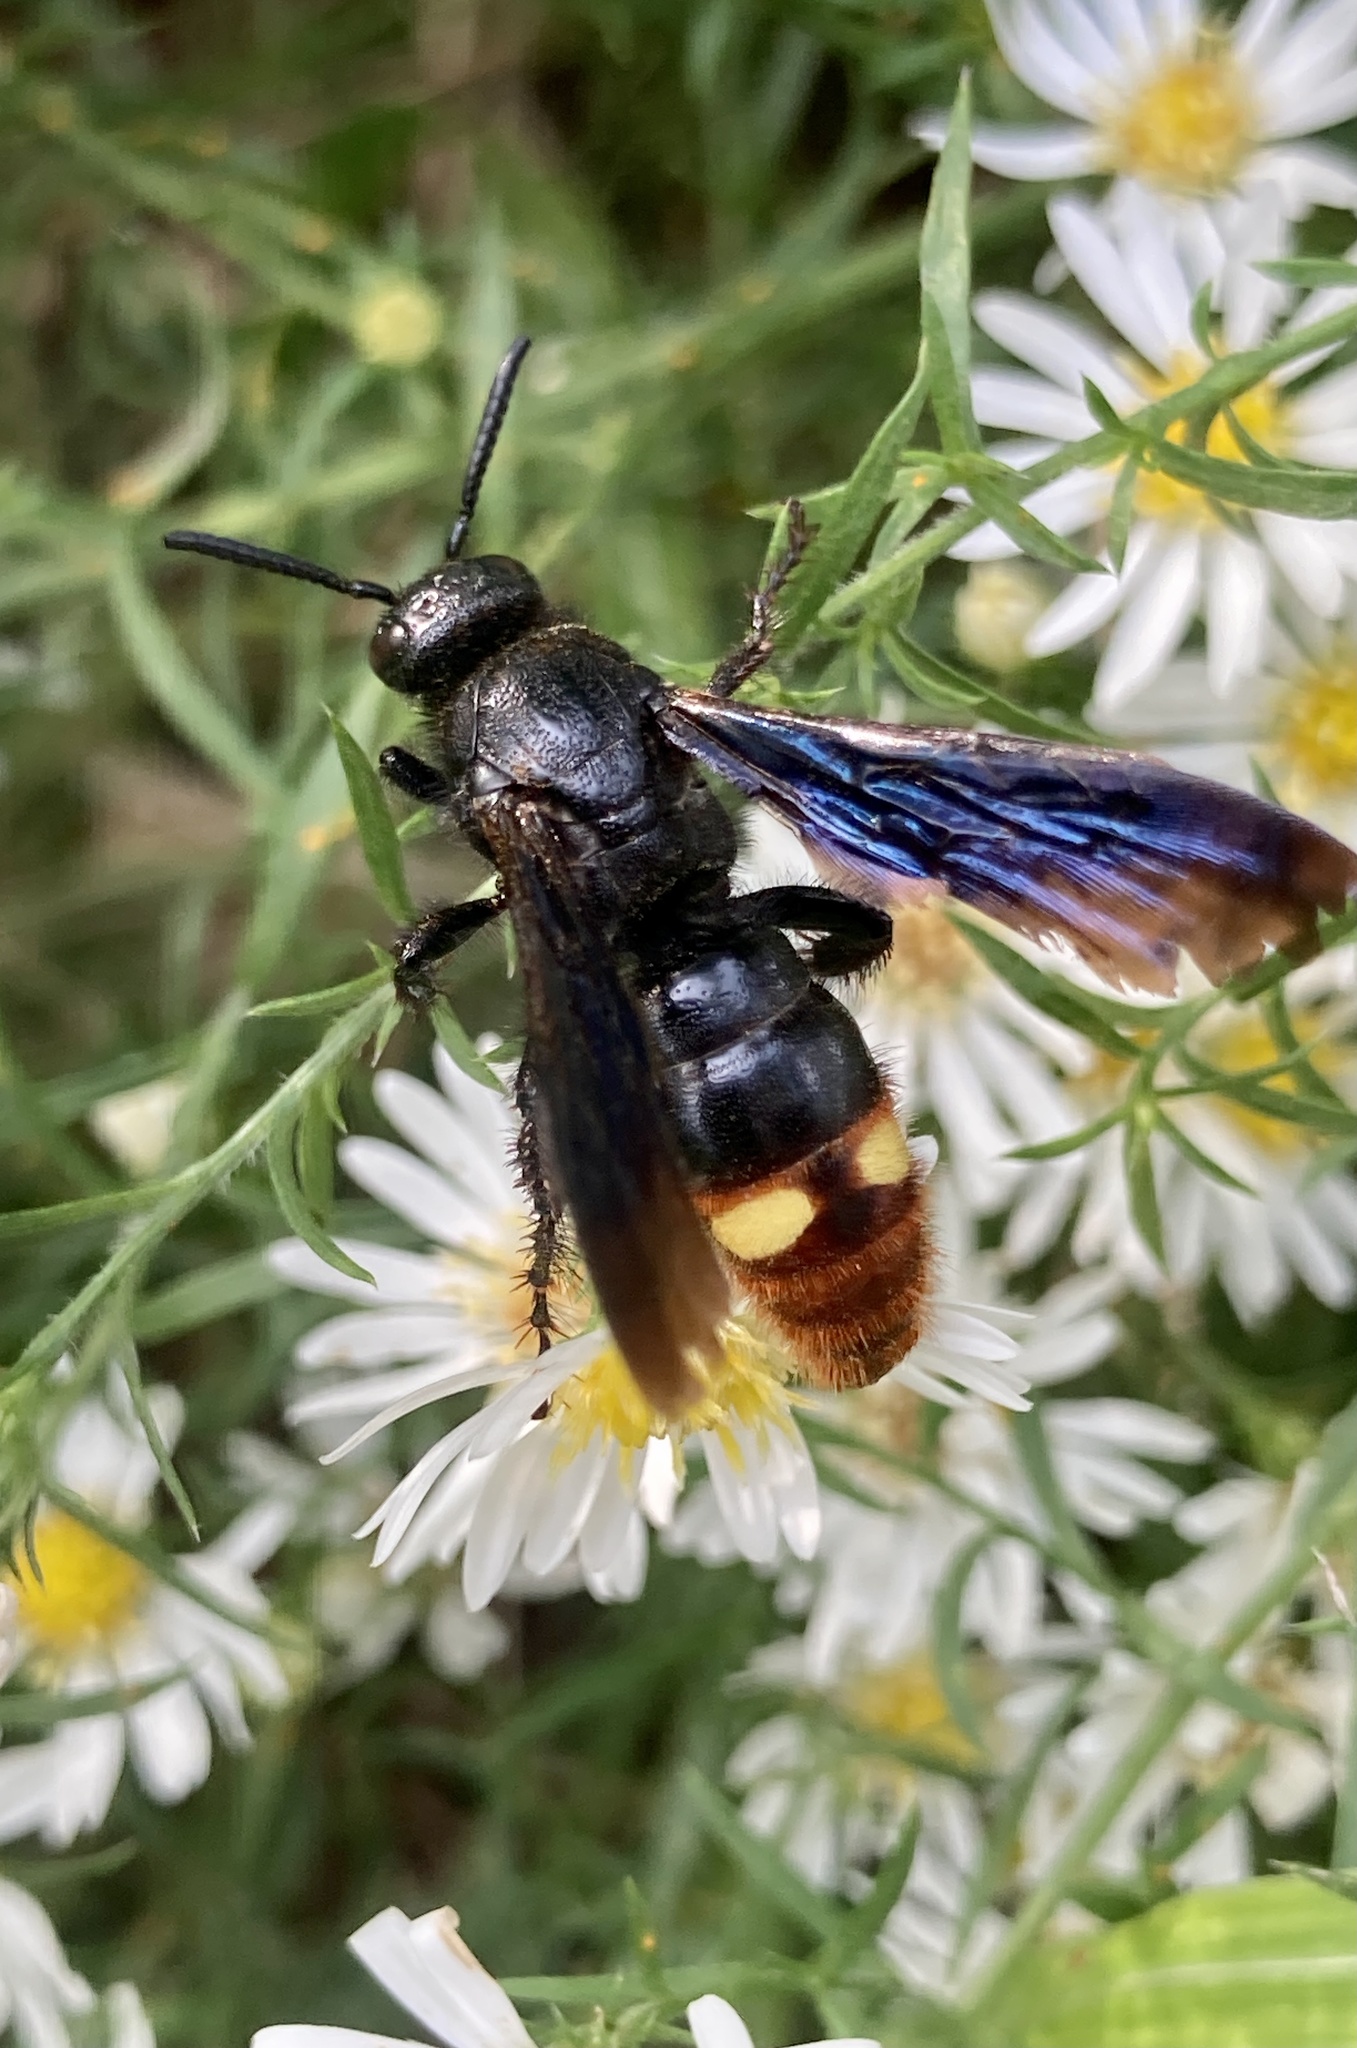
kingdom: Animalia
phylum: Arthropoda
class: Insecta
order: Hymenoptera
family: Scoliidae
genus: Scolia
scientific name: Scolia dubia
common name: Blue-winged scoliid wasp
